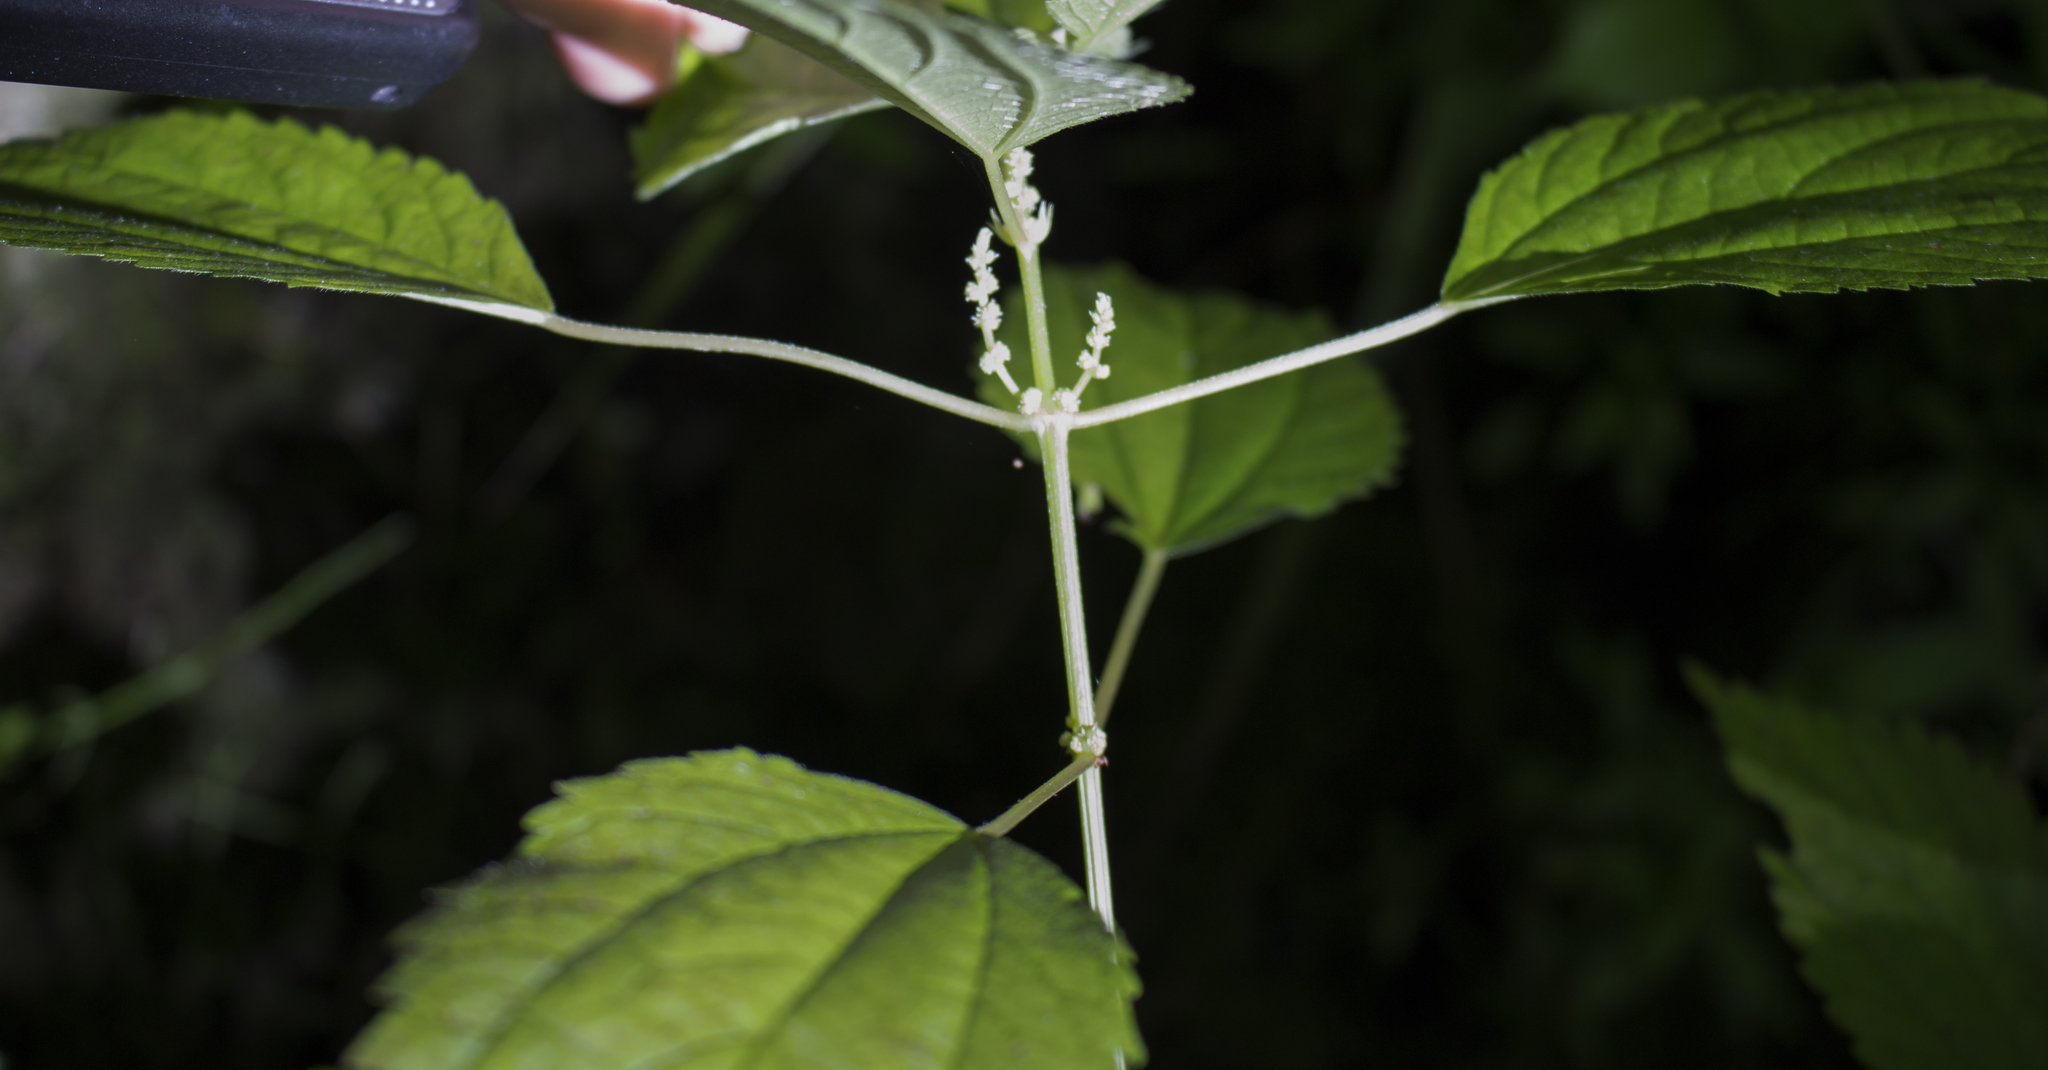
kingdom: Plantae
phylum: Tracheophyta
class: Magnoliopsida
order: Rosales
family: Urticaceae
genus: Boehmeria
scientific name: Boehmeria cylindrica
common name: Bog-hemp
